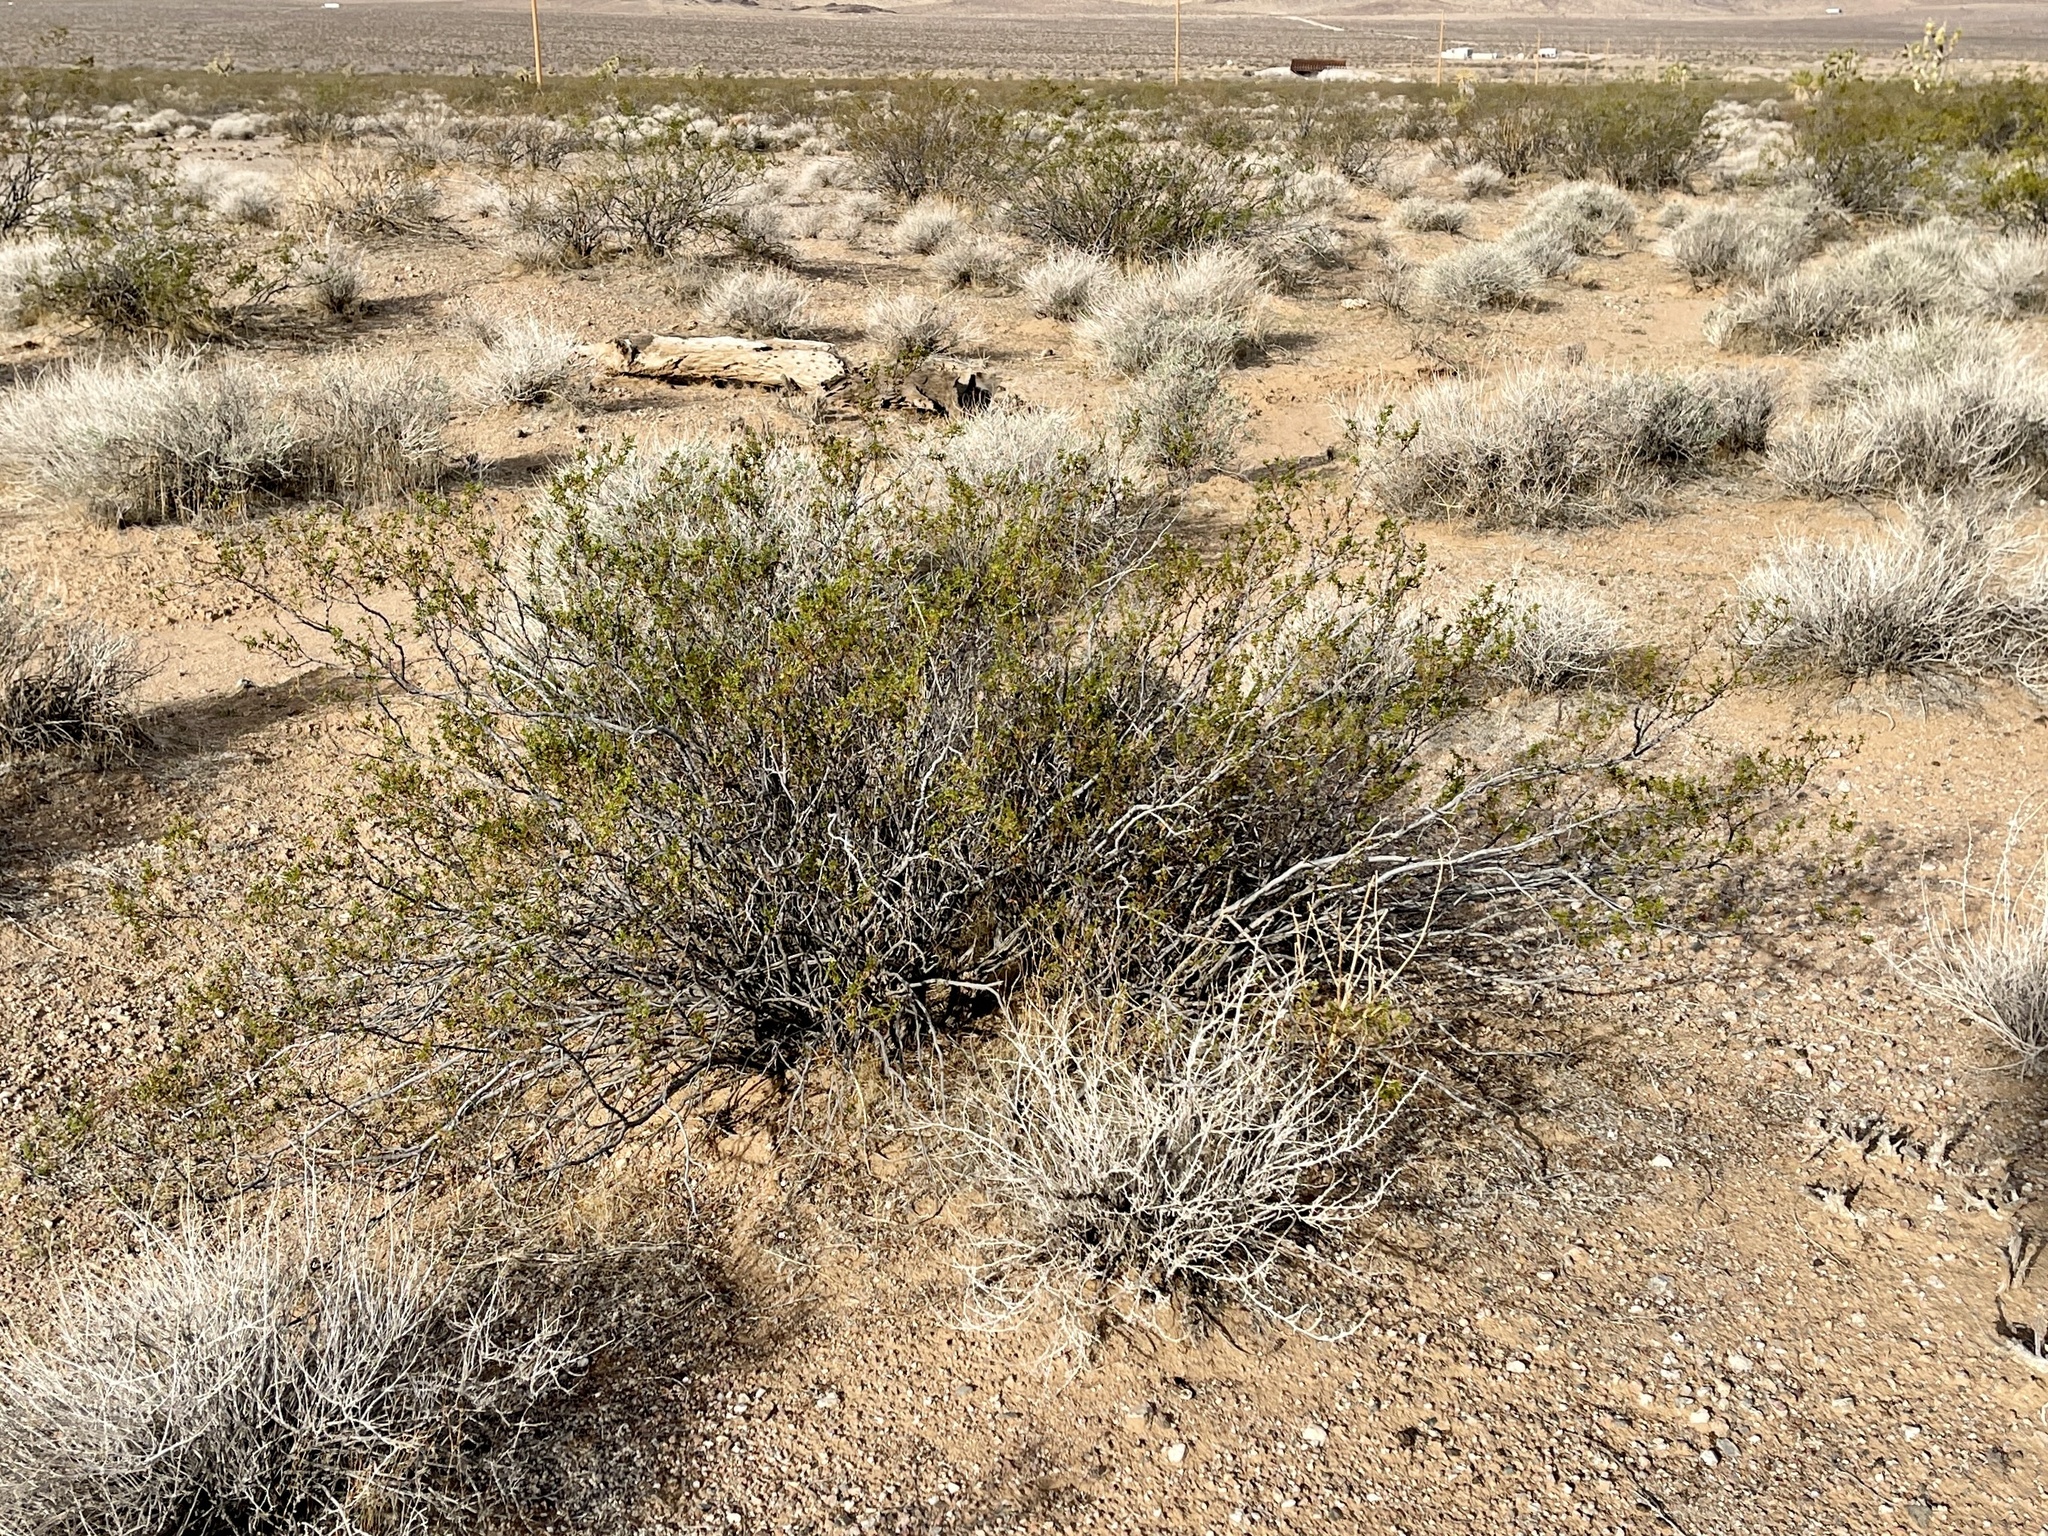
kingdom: Plantae
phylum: Tracheophyta
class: Magnoliopsida
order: Zygophyllales
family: Zygophyllaceae
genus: Larrea
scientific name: Larrea tridentata
